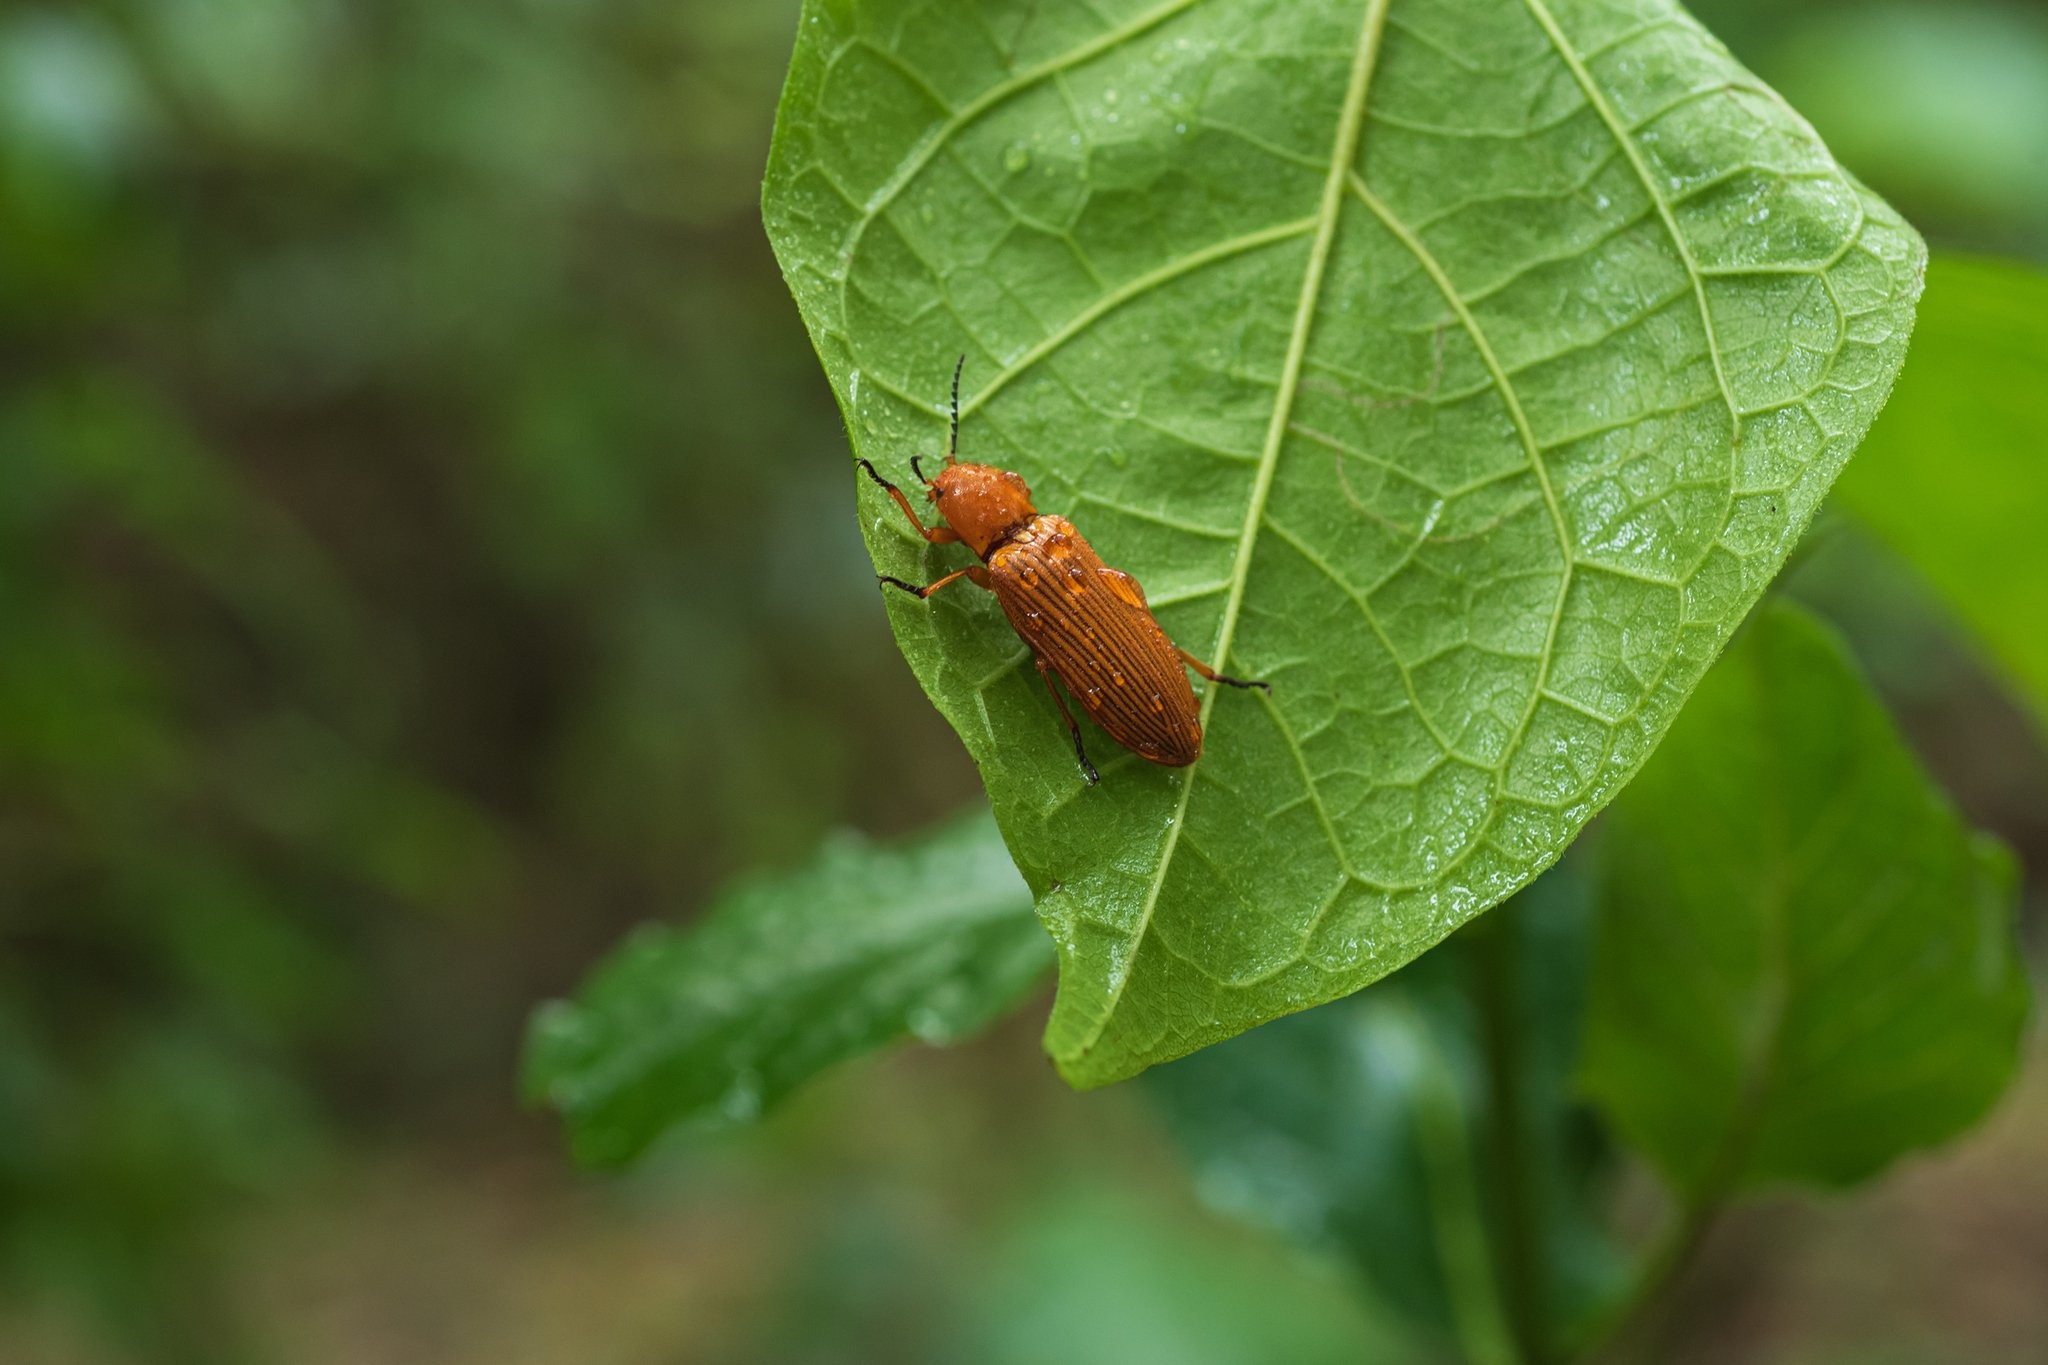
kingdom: Animalia
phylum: Arthropoda
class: Insecta
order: Coleoptera
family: Elateridae
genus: Hemiops
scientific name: Hemiops flava
